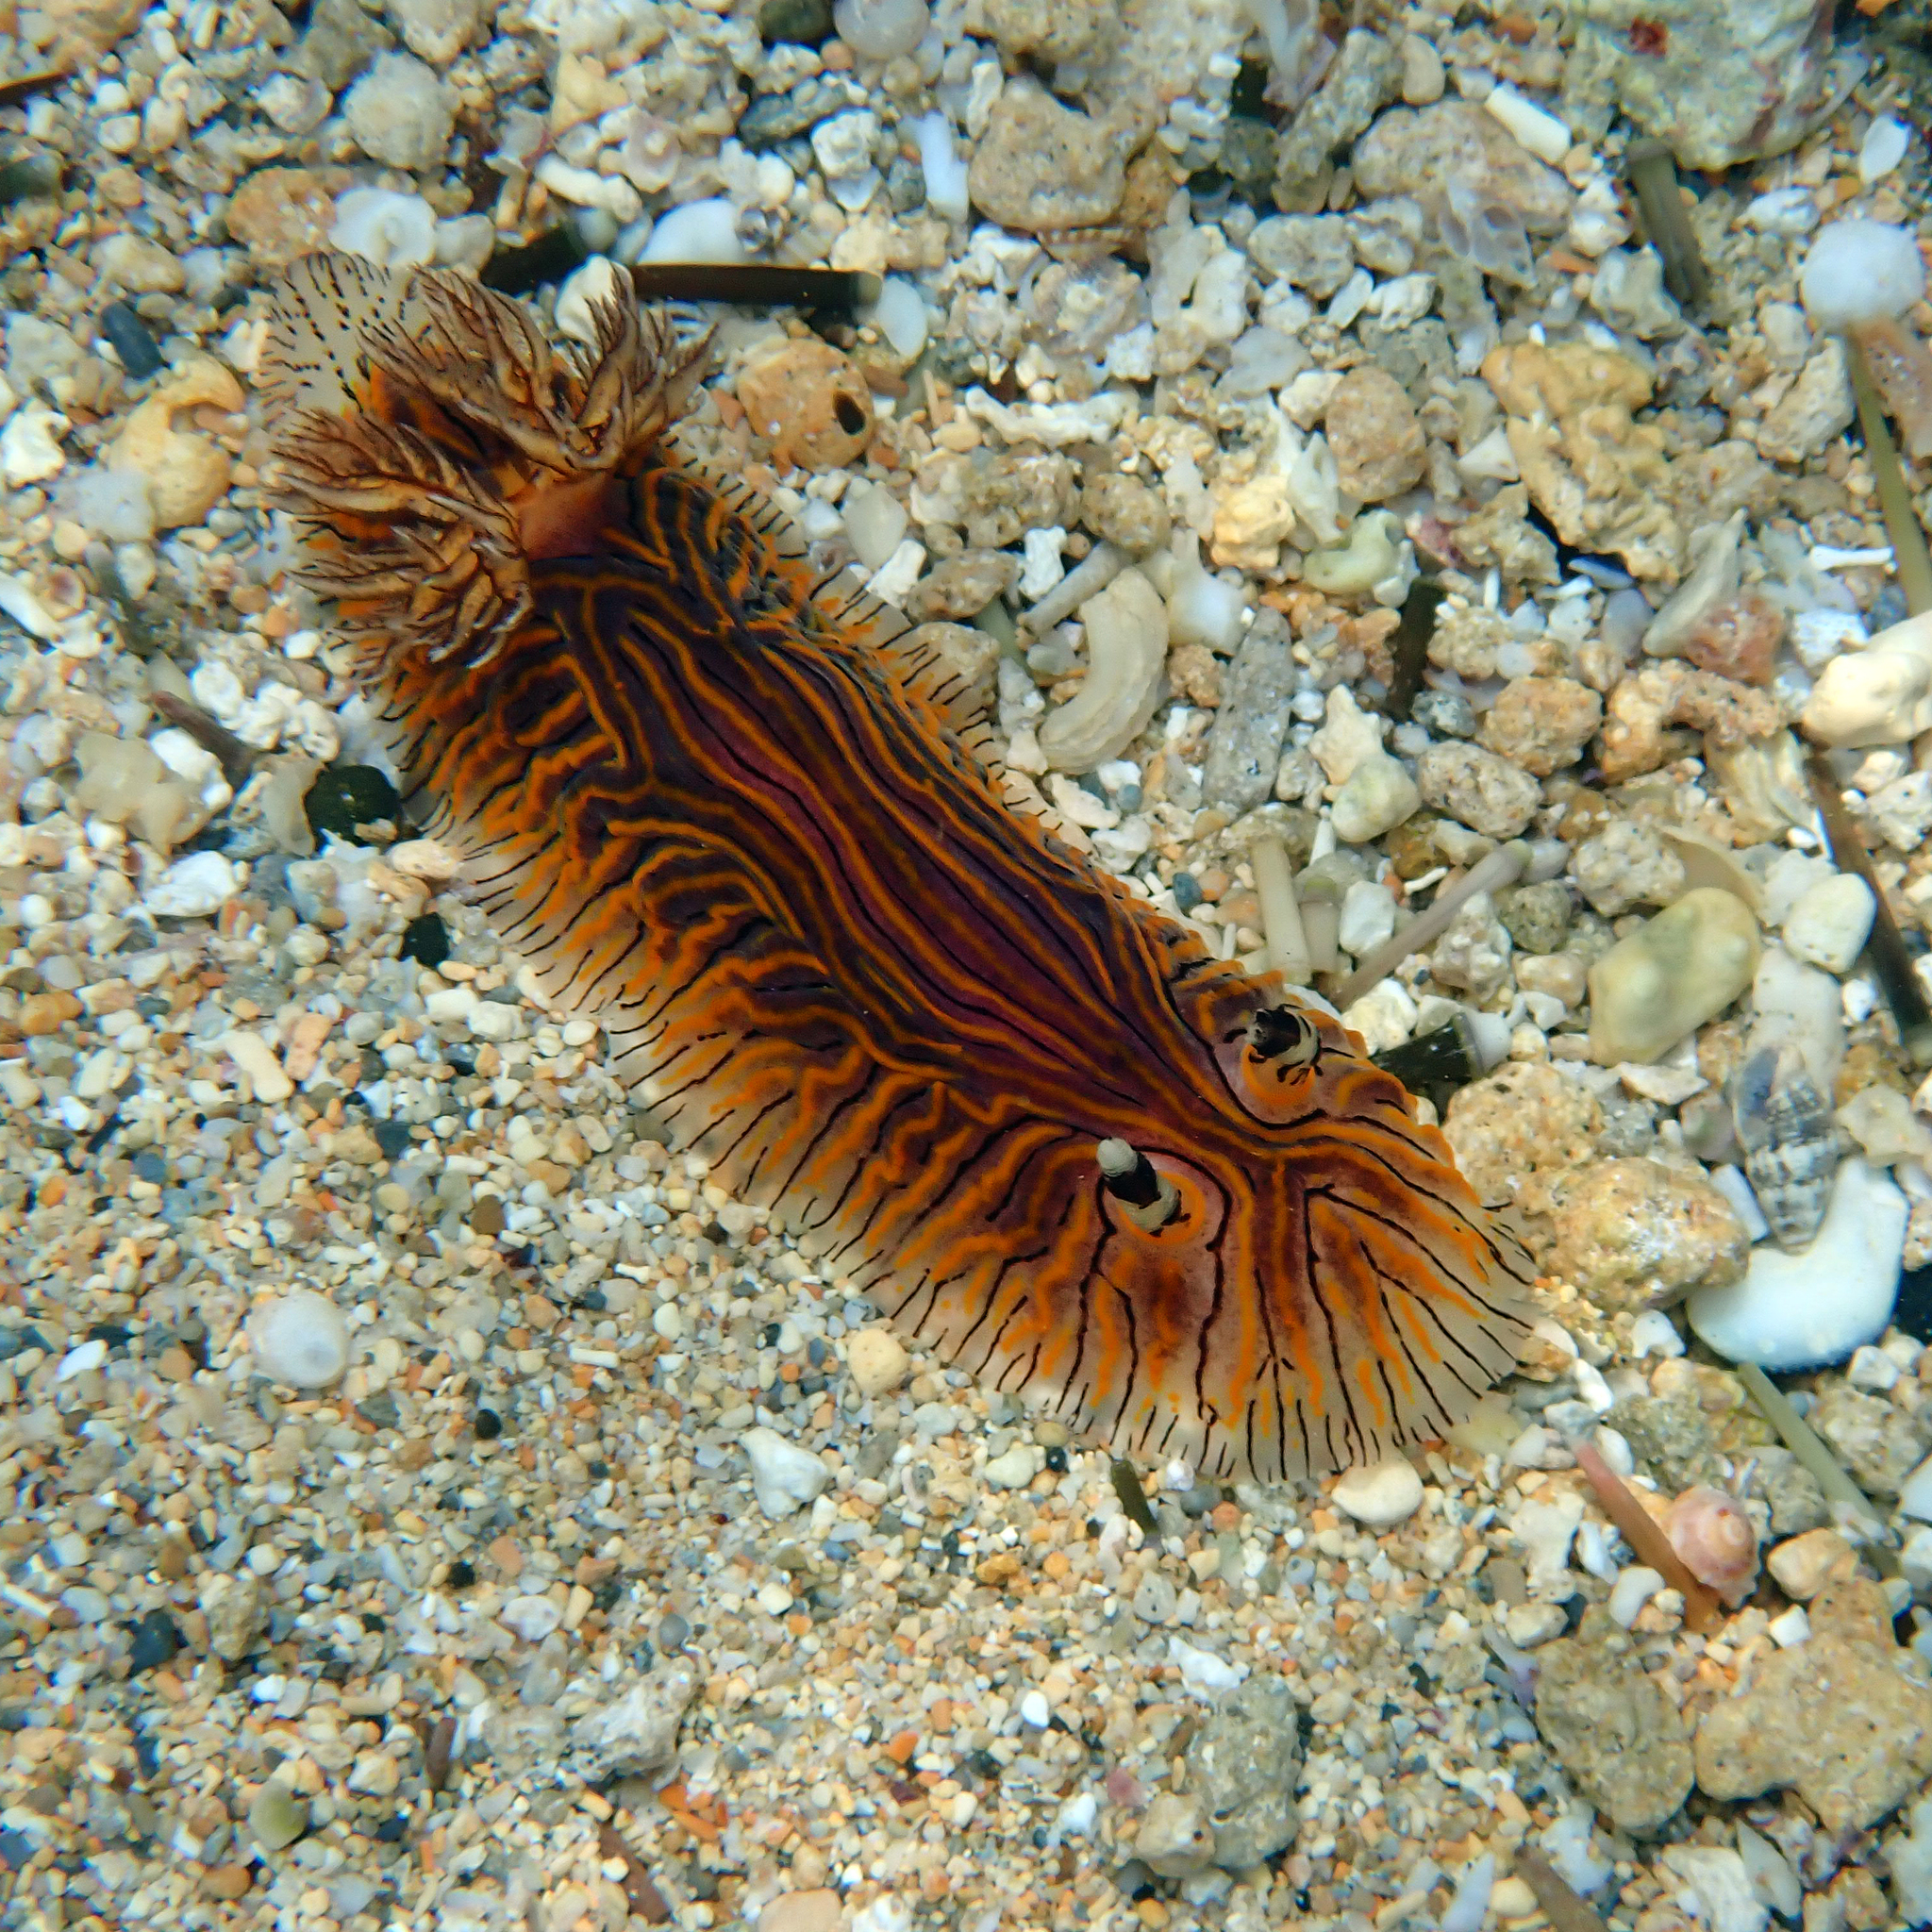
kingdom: Animalia
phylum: Mollusca
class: Gastropoda
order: Nudibranchia
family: Discodorididae
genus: Halgerda
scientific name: Halgerda willeyi
